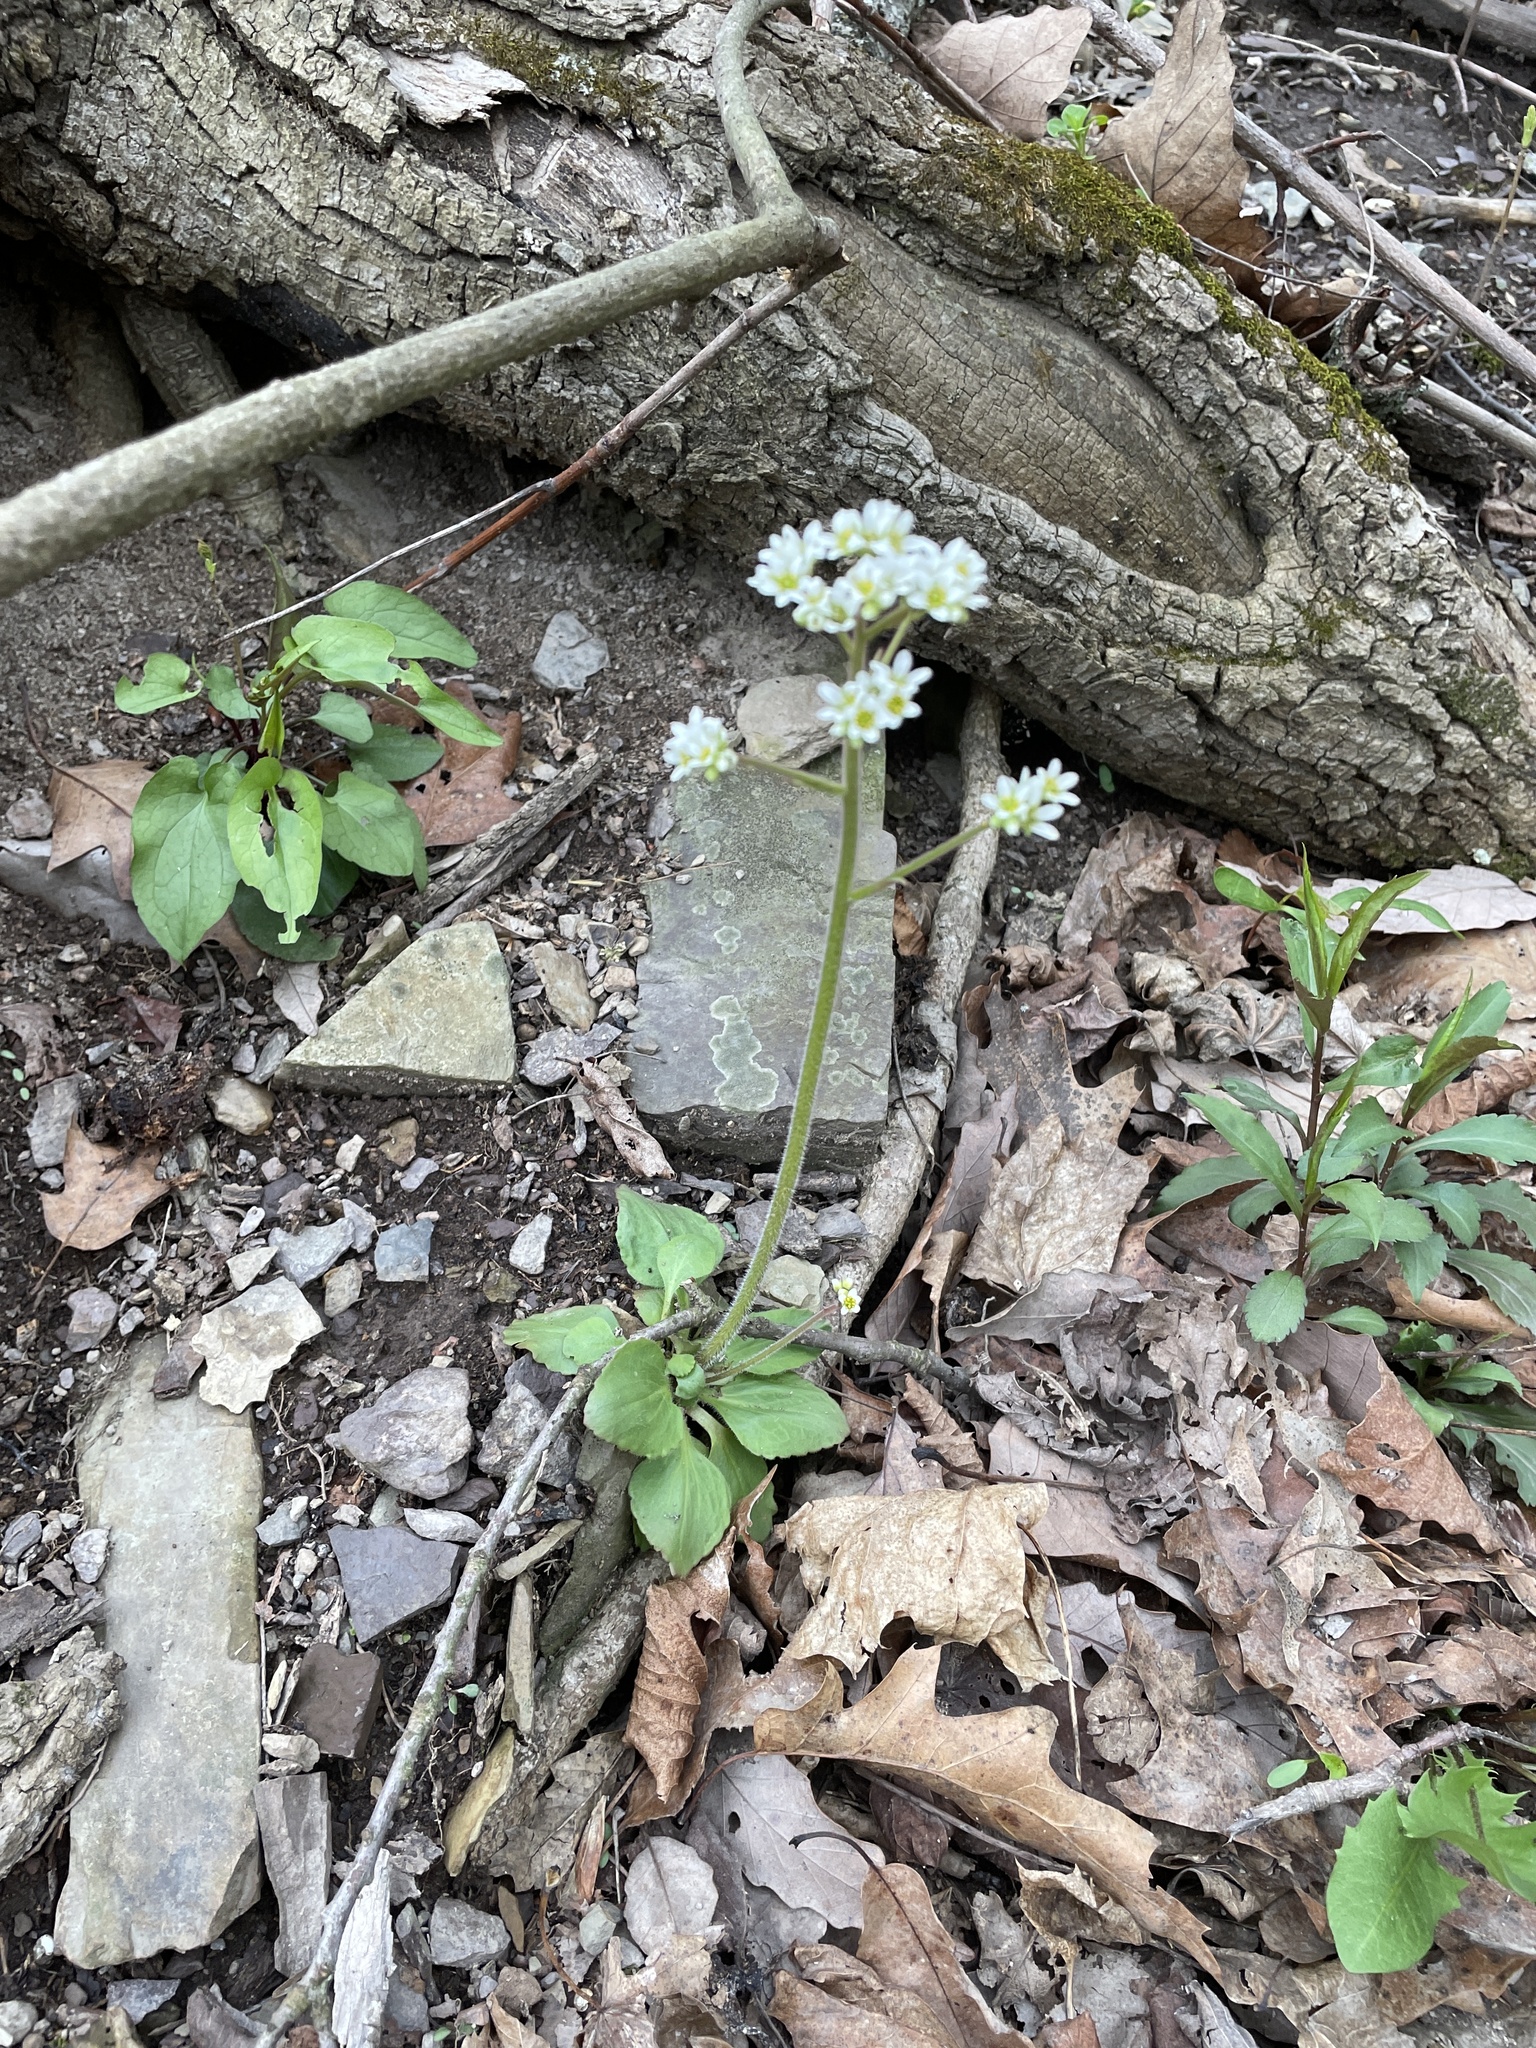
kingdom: Plantae
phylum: Tracheophyta
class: Magnoliopsida
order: Saxifragales
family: Saxifragaceae
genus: Micranthes
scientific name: Micranthes virginiensis
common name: Early saxifrage
